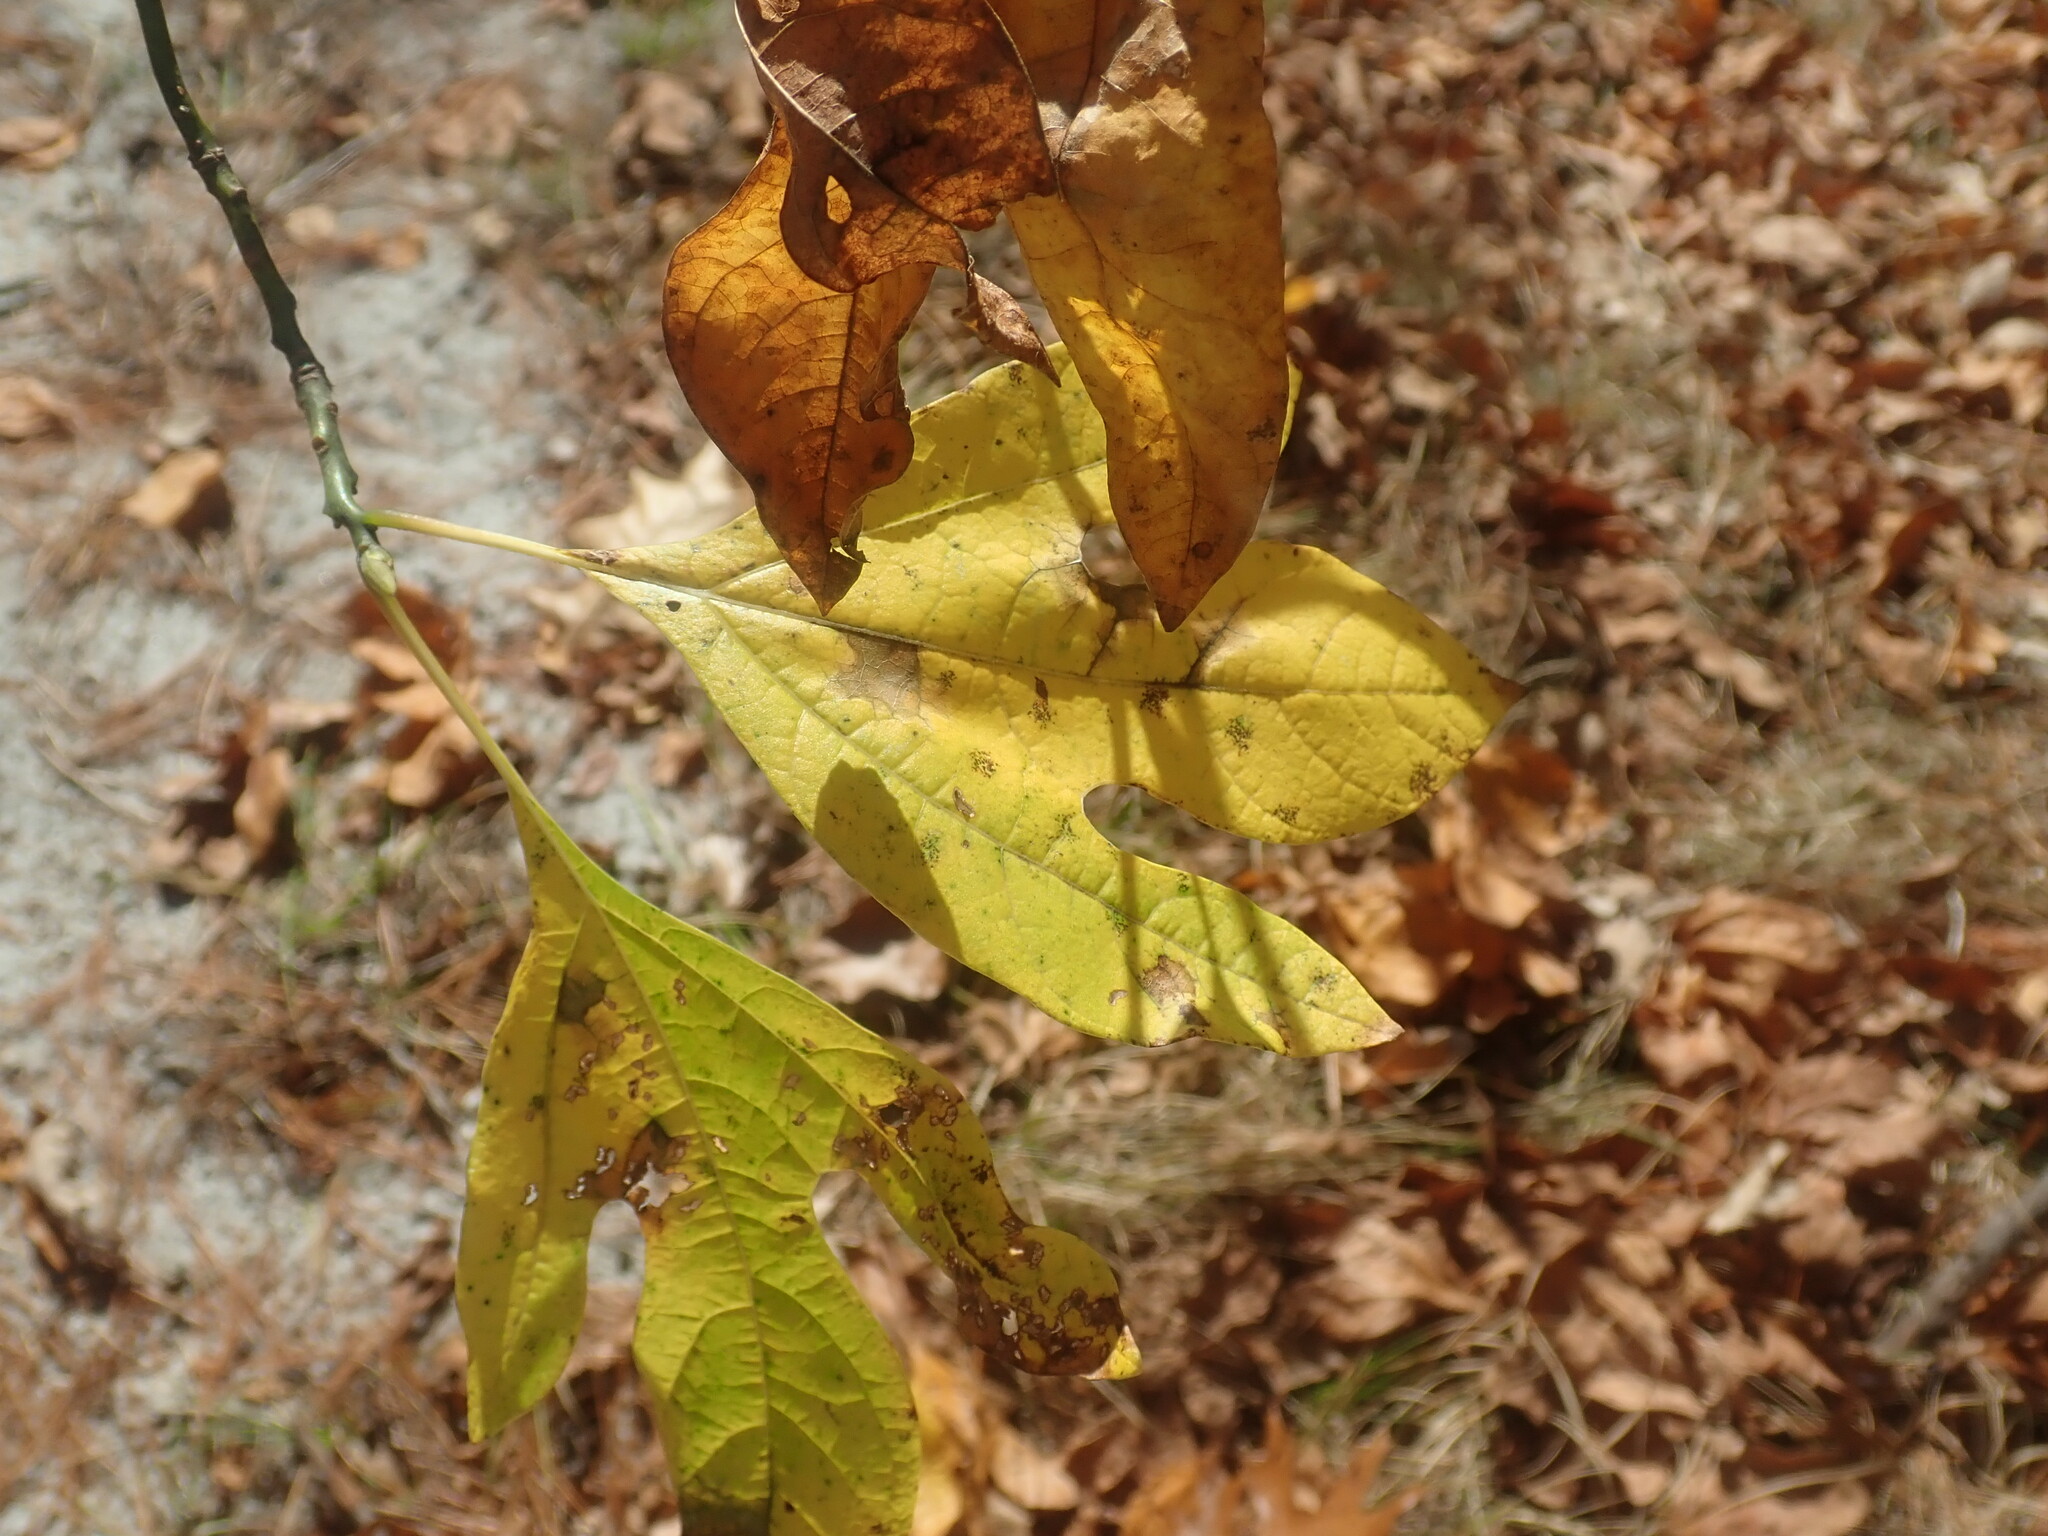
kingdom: Plantae
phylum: Tracheophyta
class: Magnoliopsida
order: Laurales
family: Lauraceae
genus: Sassafras
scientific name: Sassafras albidum
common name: Sassafras
